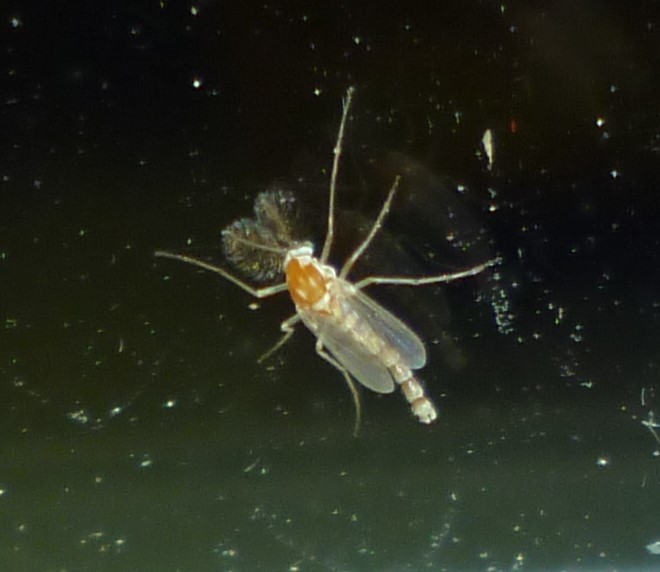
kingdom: Animalia
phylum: Arthropoda
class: Insecta
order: Diptera
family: Chironomidae
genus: Procladius
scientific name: Procladius bellus
